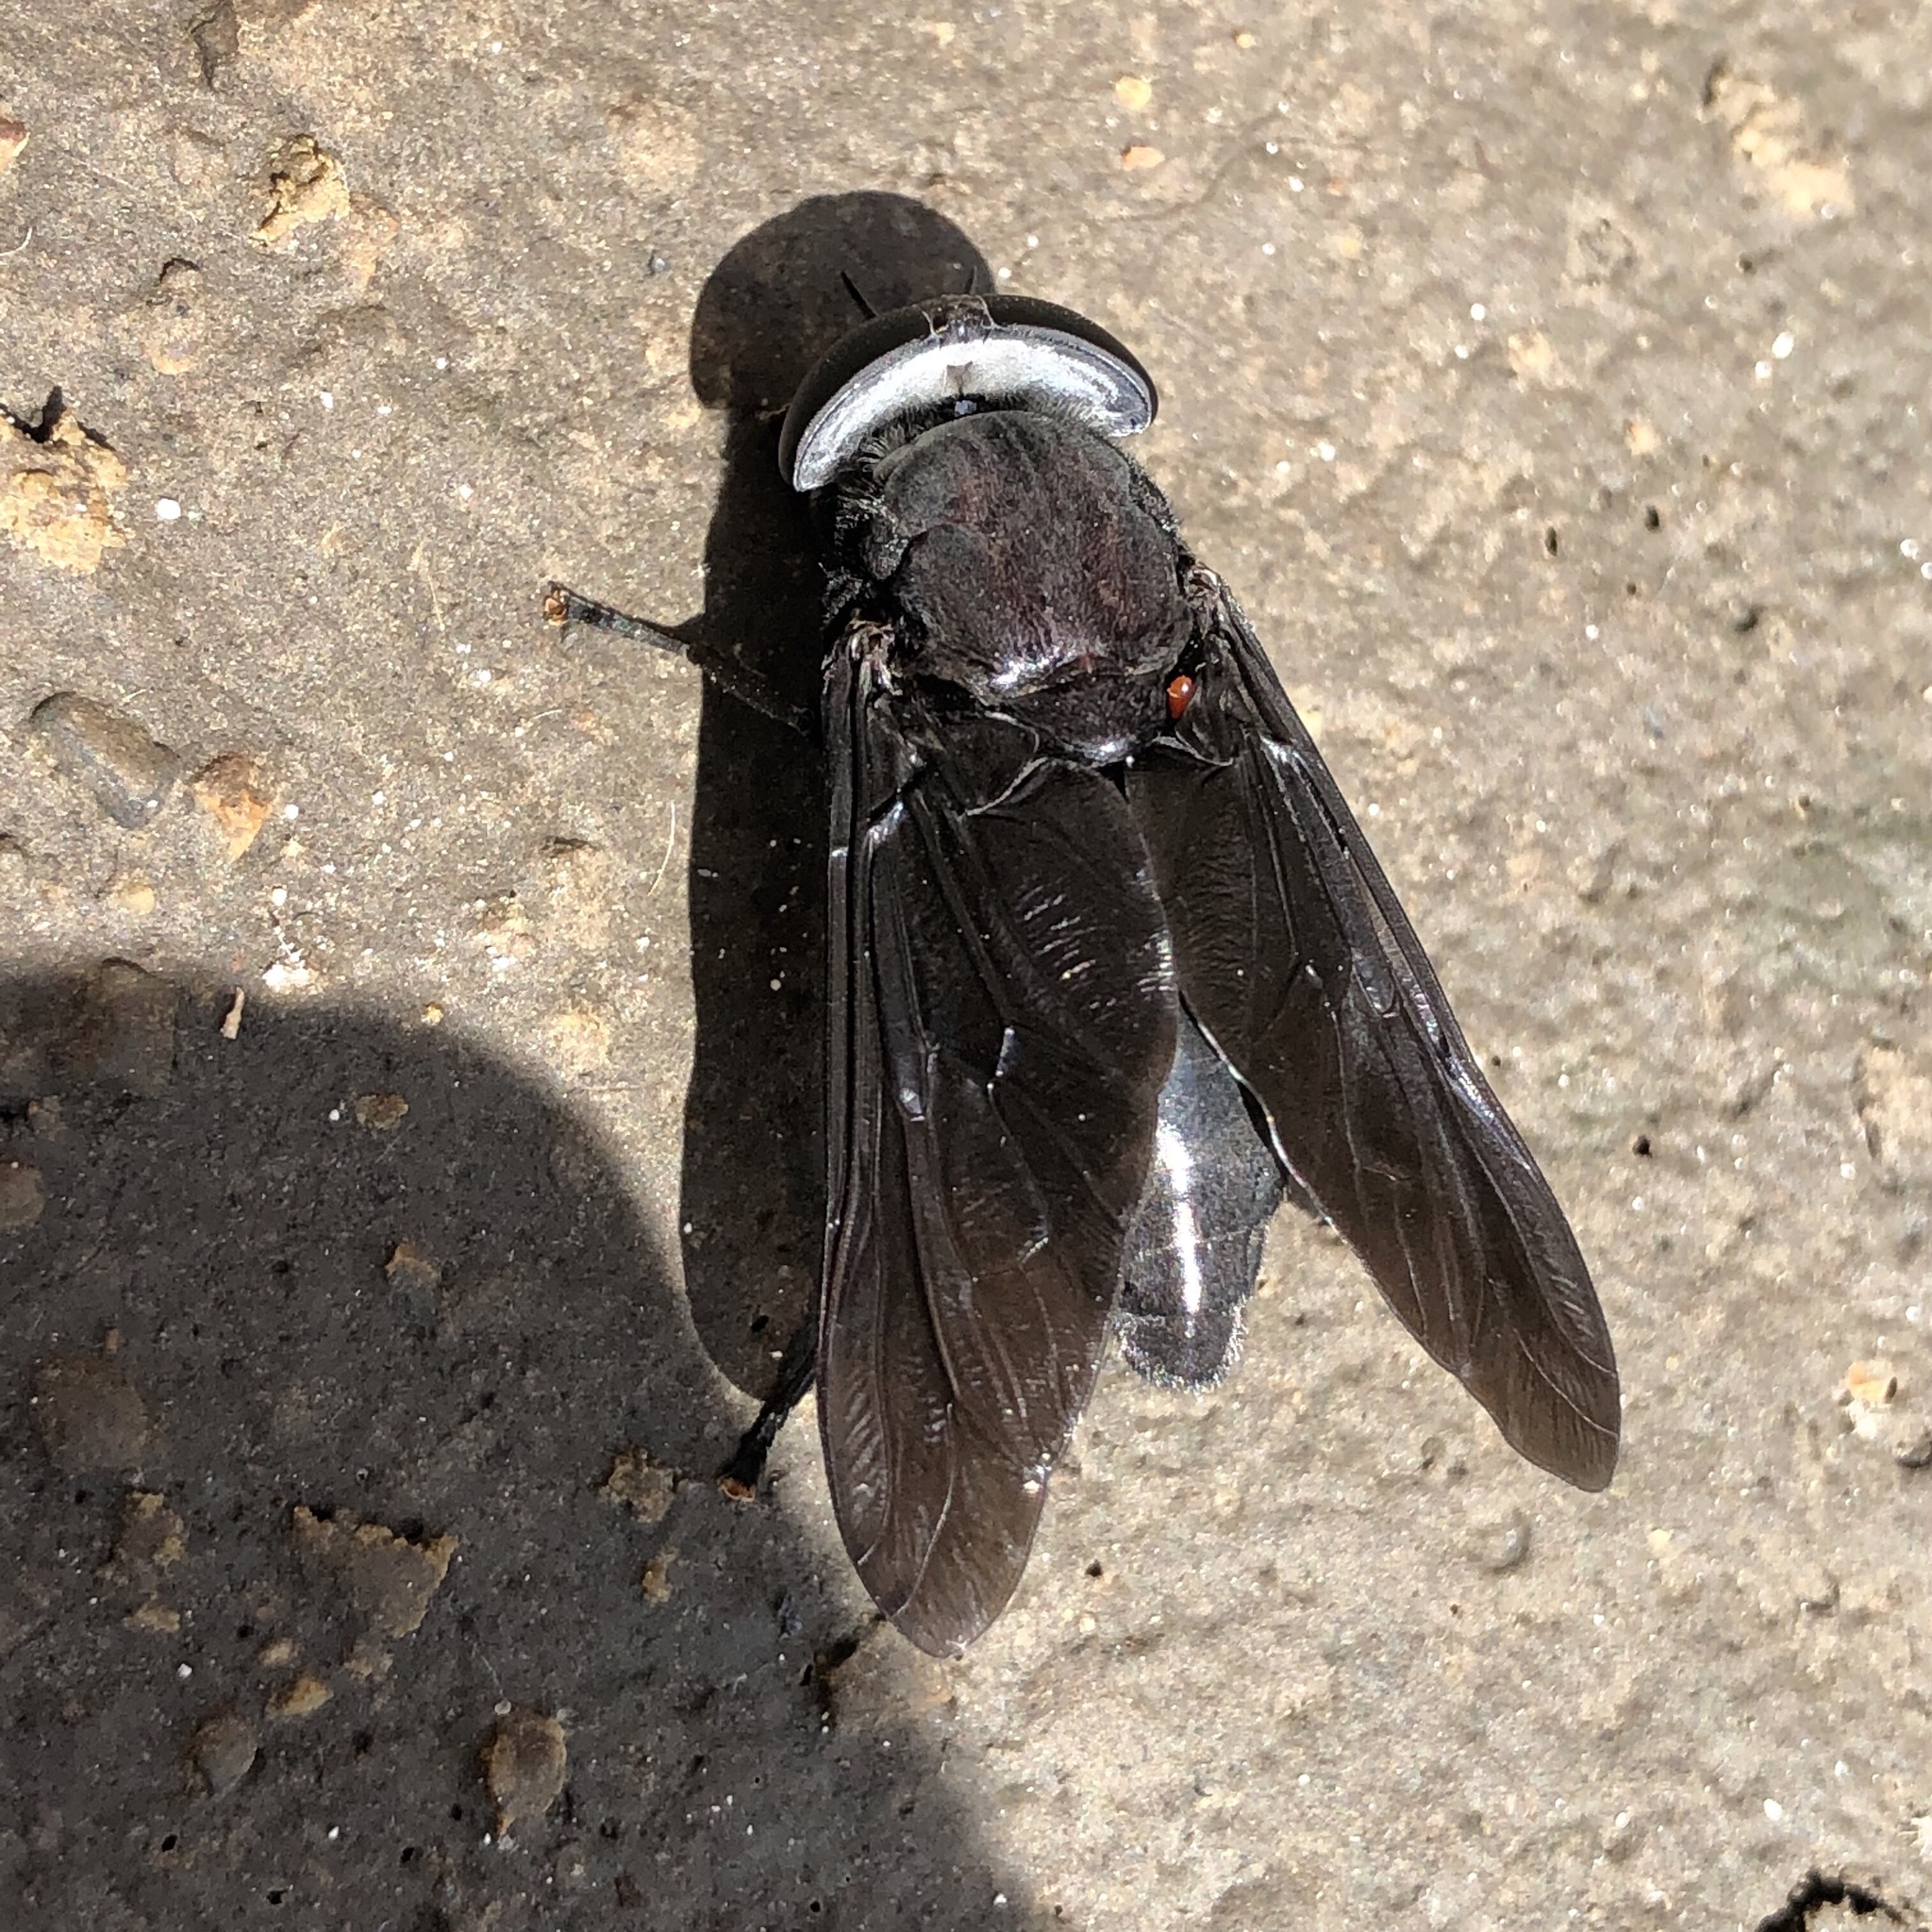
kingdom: Animalia
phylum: Arthropoda
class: Insecta
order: Diptera
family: Tabanidae
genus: Tabanus
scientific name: Tabanus atratus
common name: Black horse fly
